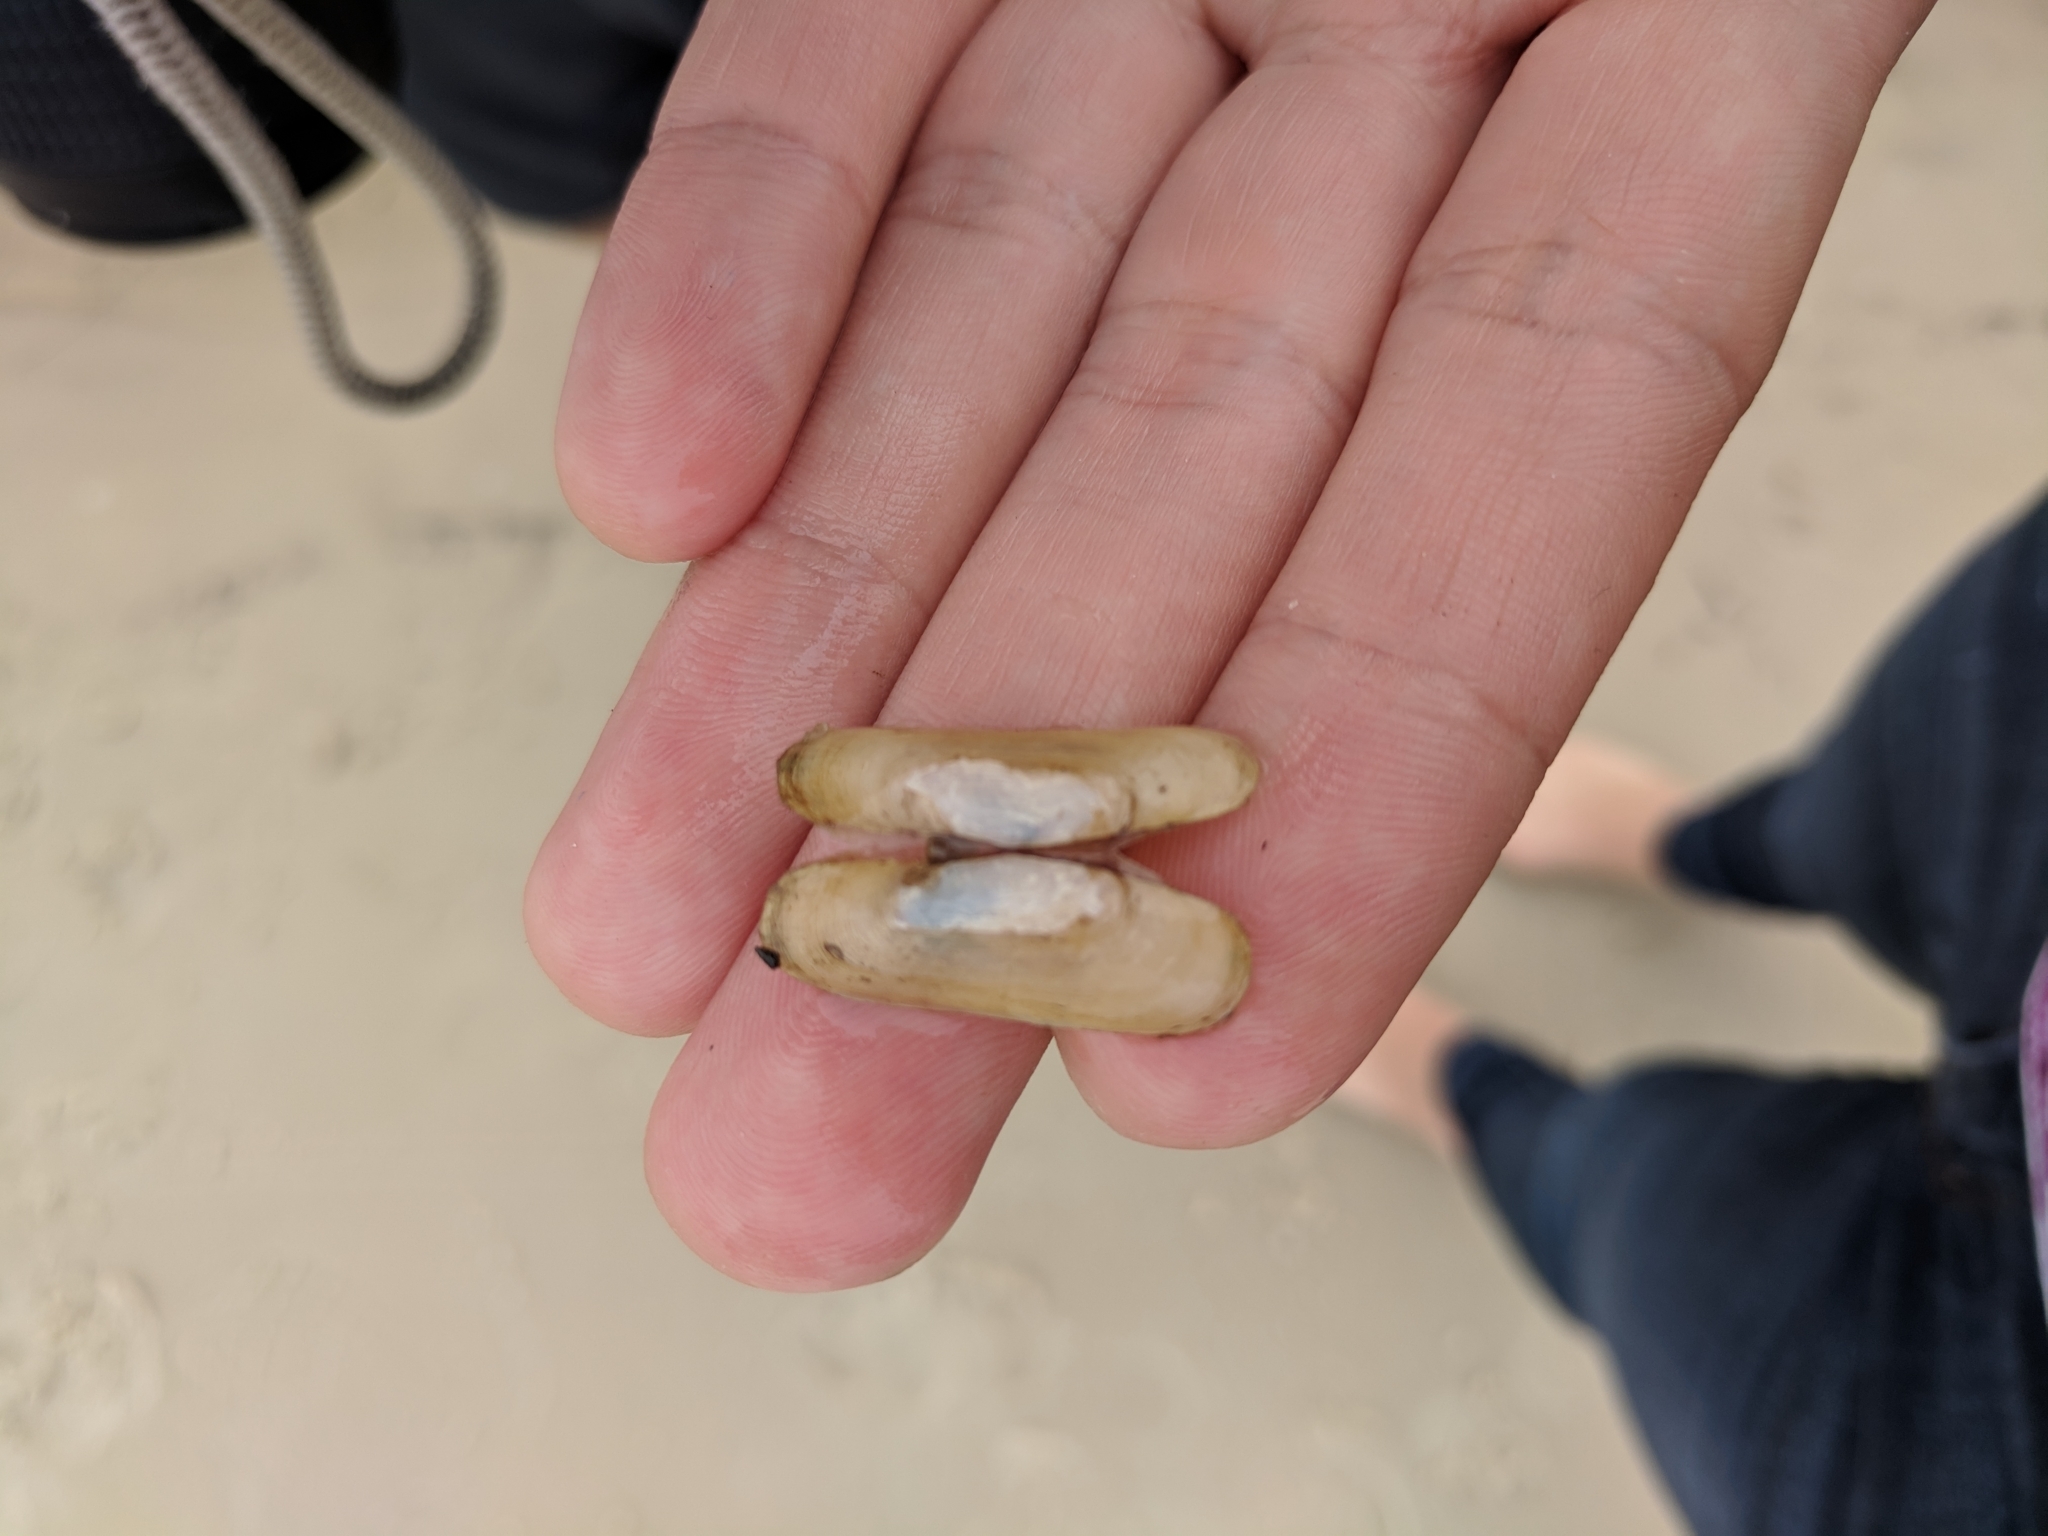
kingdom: Animalia
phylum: Mollusca
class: Bivalvia
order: Cardiida
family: Solecurtidae
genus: Tagelus
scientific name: Tagelus plebeius
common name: Stout tagelus
